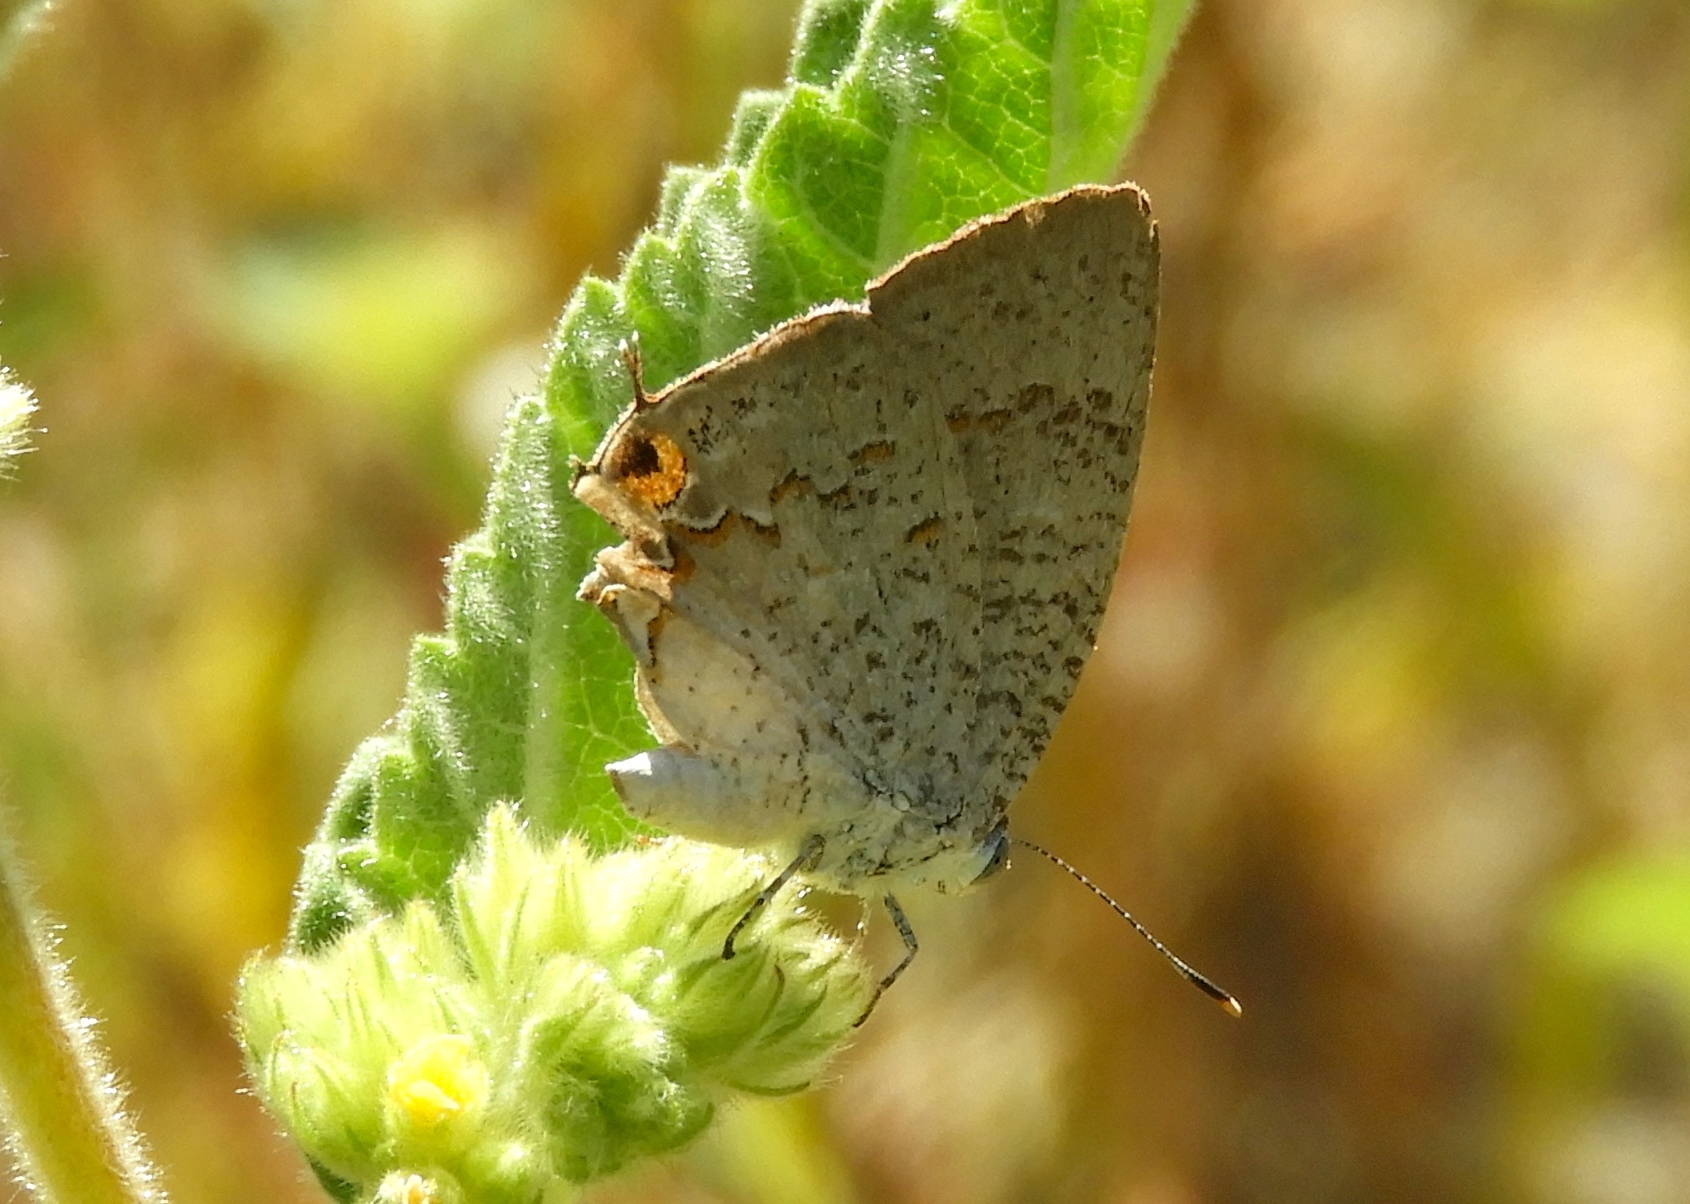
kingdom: Animalia
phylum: Arthropoda
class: Insecta
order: Lepidoptera
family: Lycaenidae
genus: Hypostrymon
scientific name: Hypostrymon critola
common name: Sonoran hairstreak
